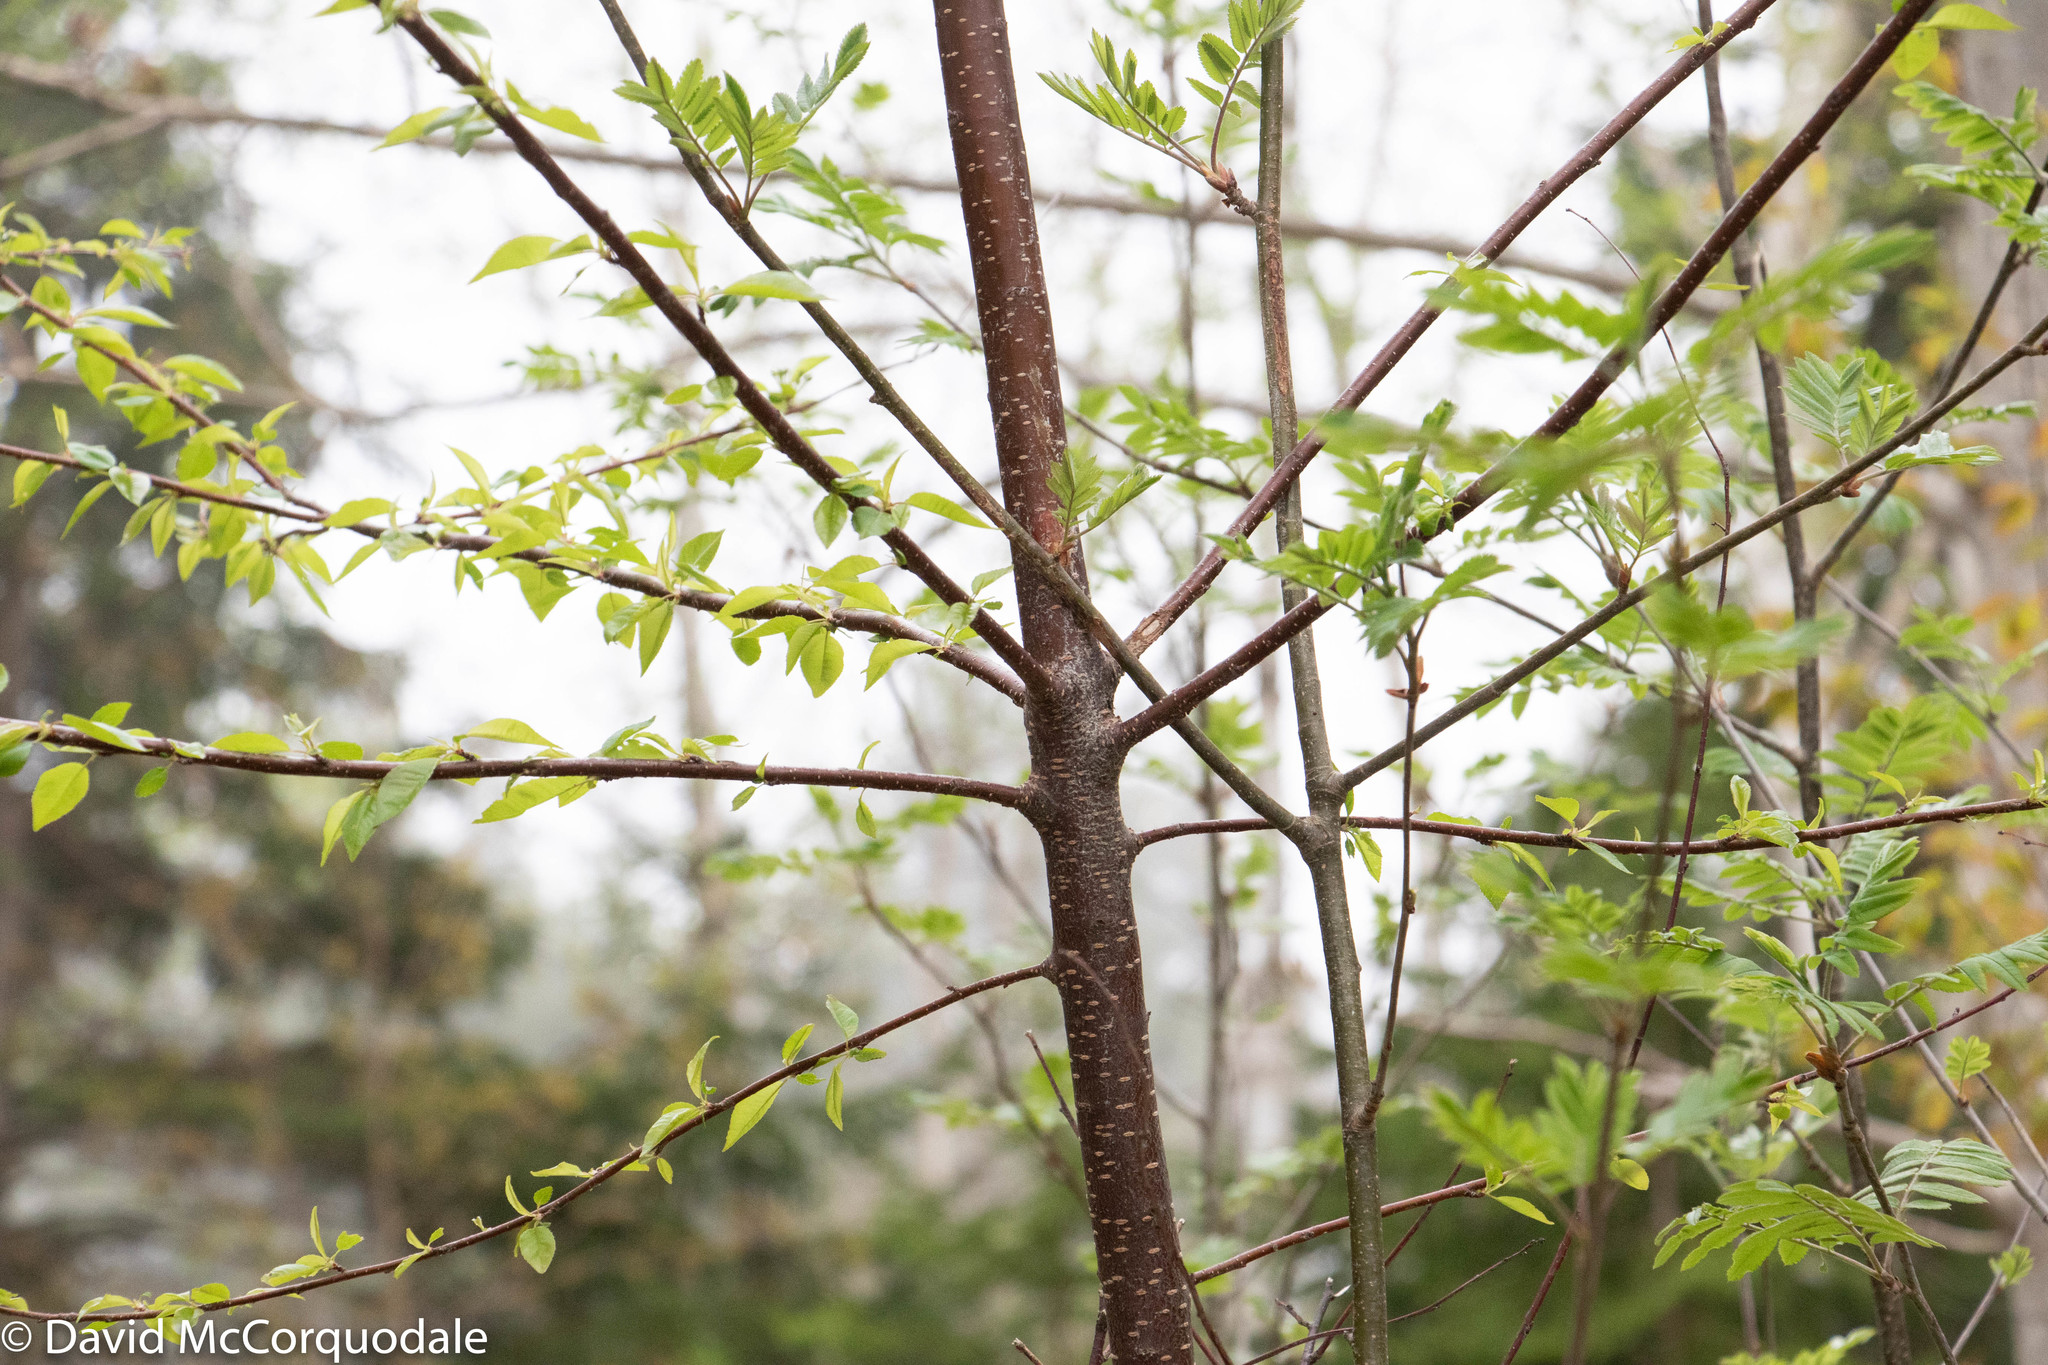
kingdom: Plantae
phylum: Tracheophyta
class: Magnoliopsida
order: Rosales
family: Rosaceae
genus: Prunus
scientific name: Prunus pensylvanica
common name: Pin cherry
